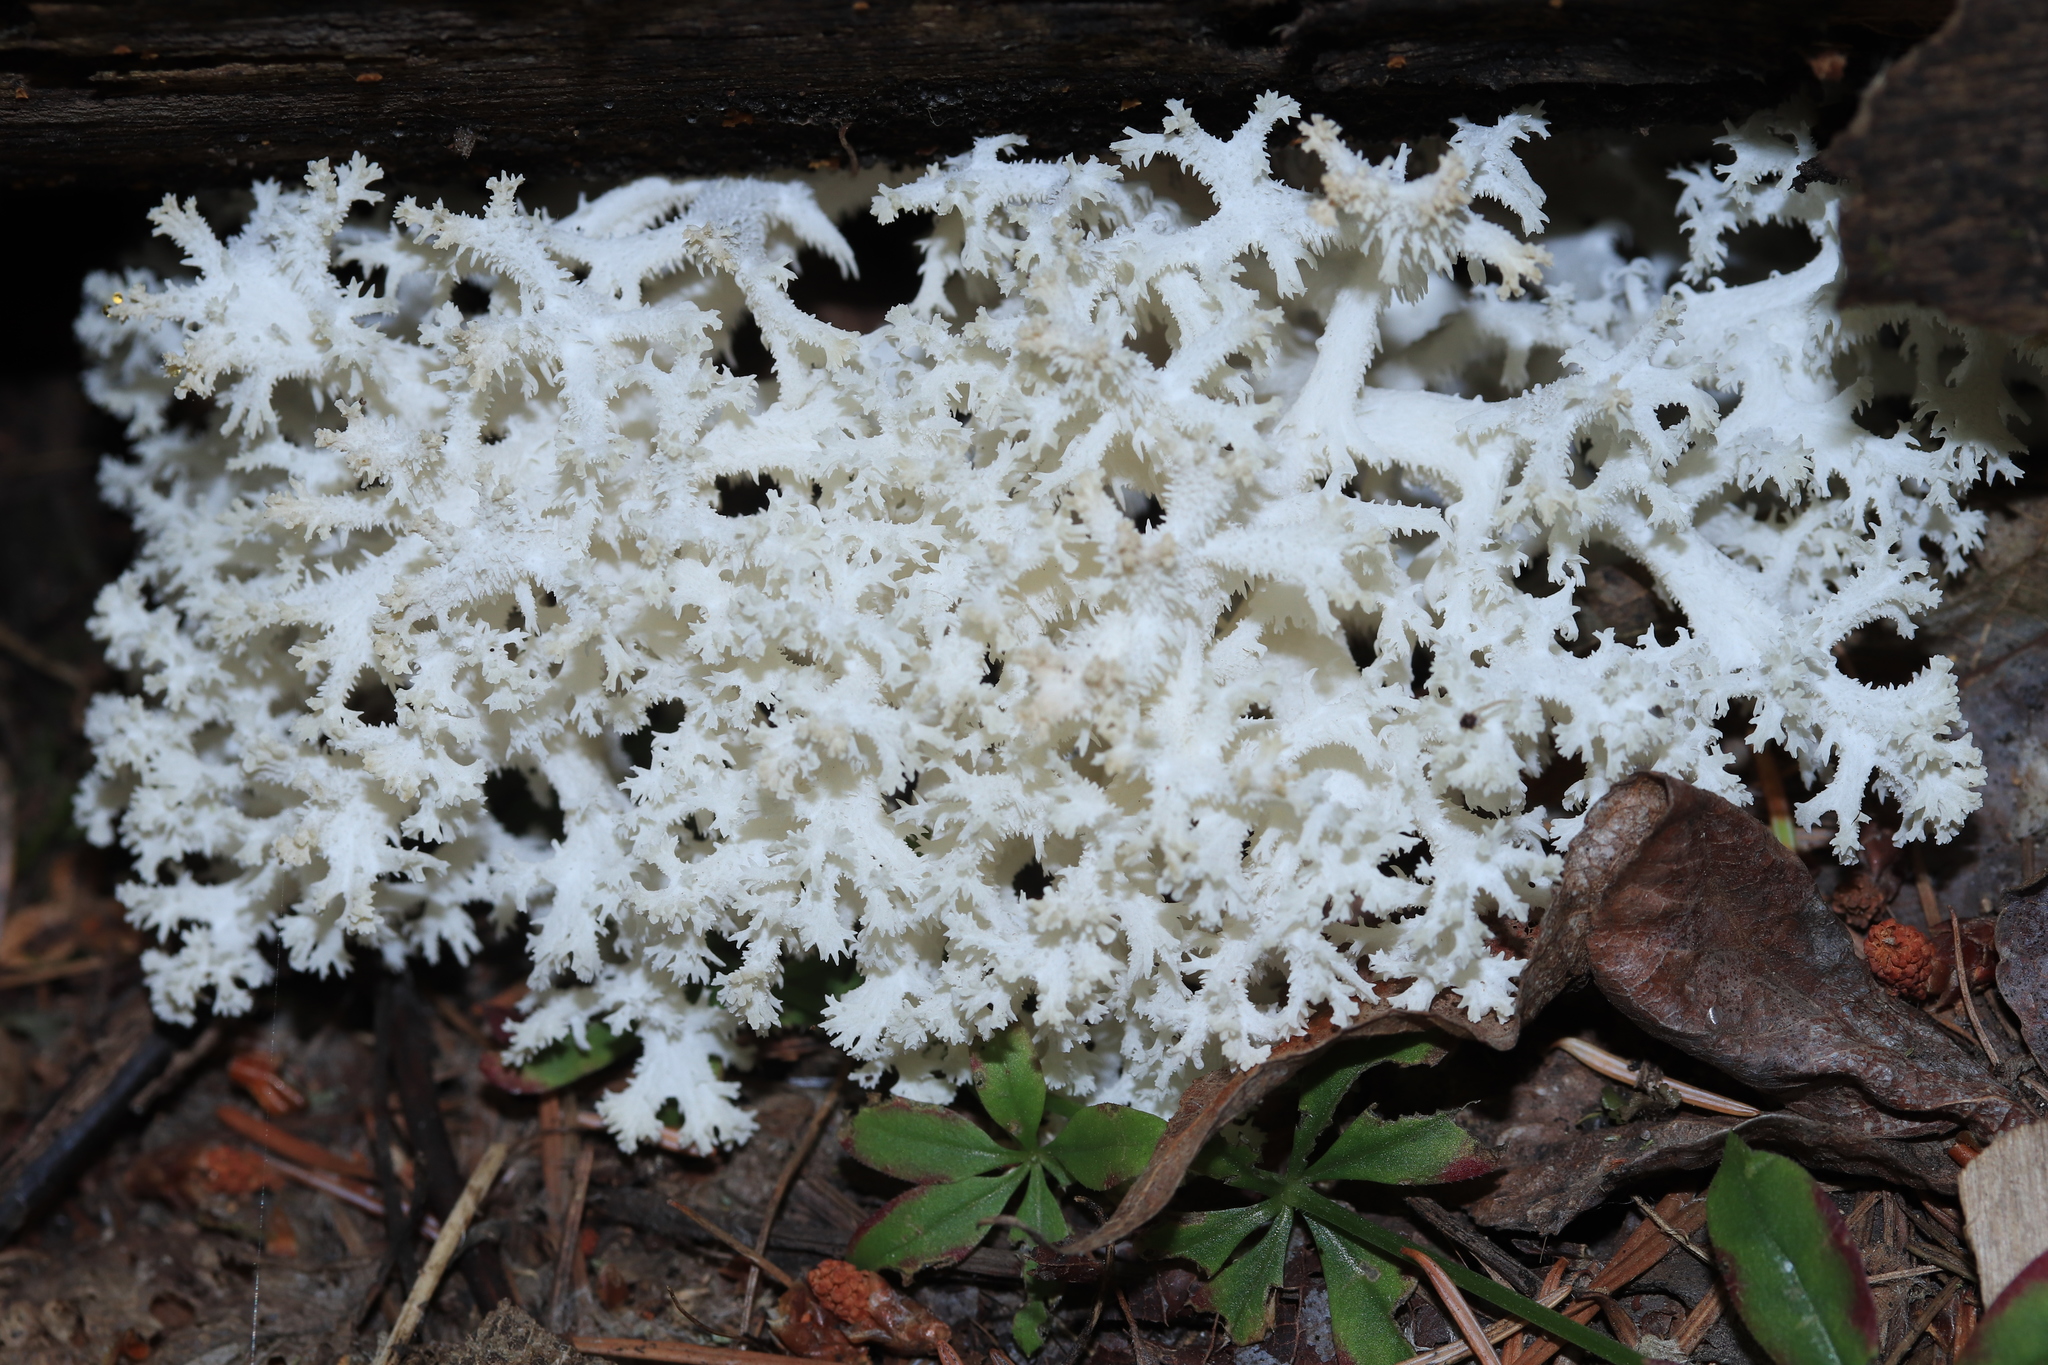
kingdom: Fungi
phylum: Basidiomycota
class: Agaricomycetes
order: Russulales
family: Hericiaceae
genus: Hericium
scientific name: Hericium coralloides
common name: Coral tooth
